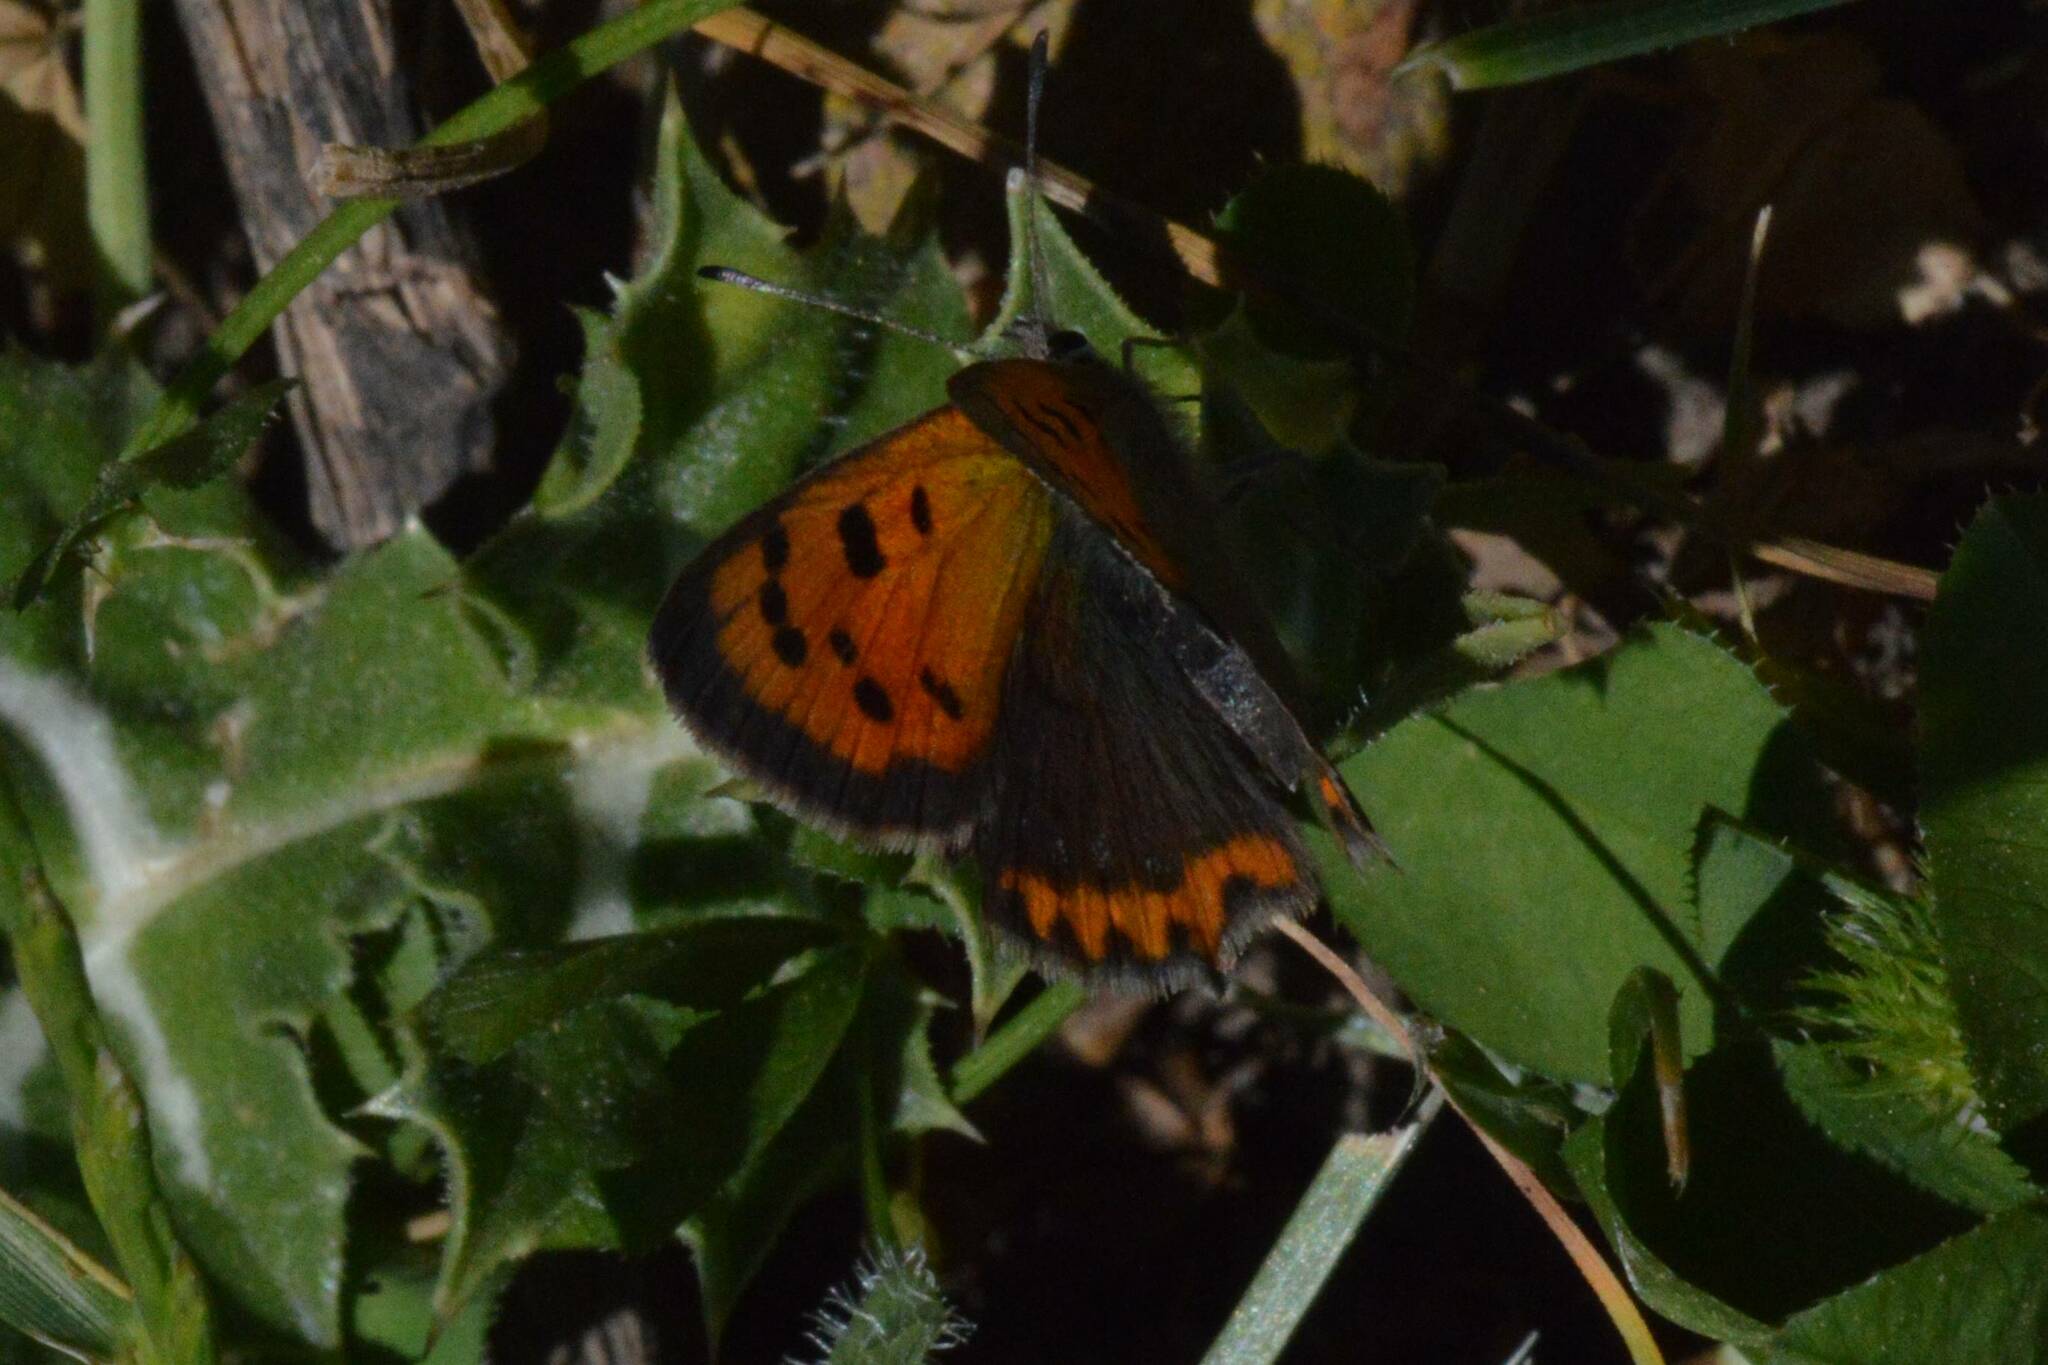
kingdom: Animalia
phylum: Arthropoda
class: Insecta
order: Lepidoptera
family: Lycaenidae
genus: Lycaena
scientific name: Lycaena phlaeas
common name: Small copper
